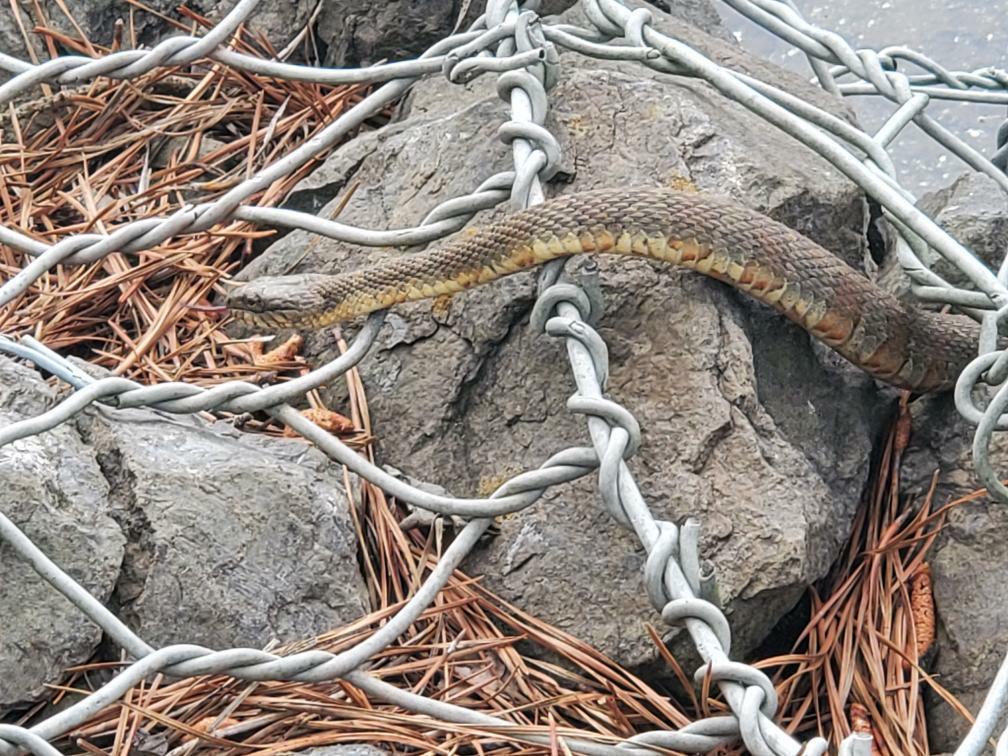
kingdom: Animalia
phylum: Chordata
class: Squamata
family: Colubridae
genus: Nerodia
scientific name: Nerodia sipedon
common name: Northern water snake
